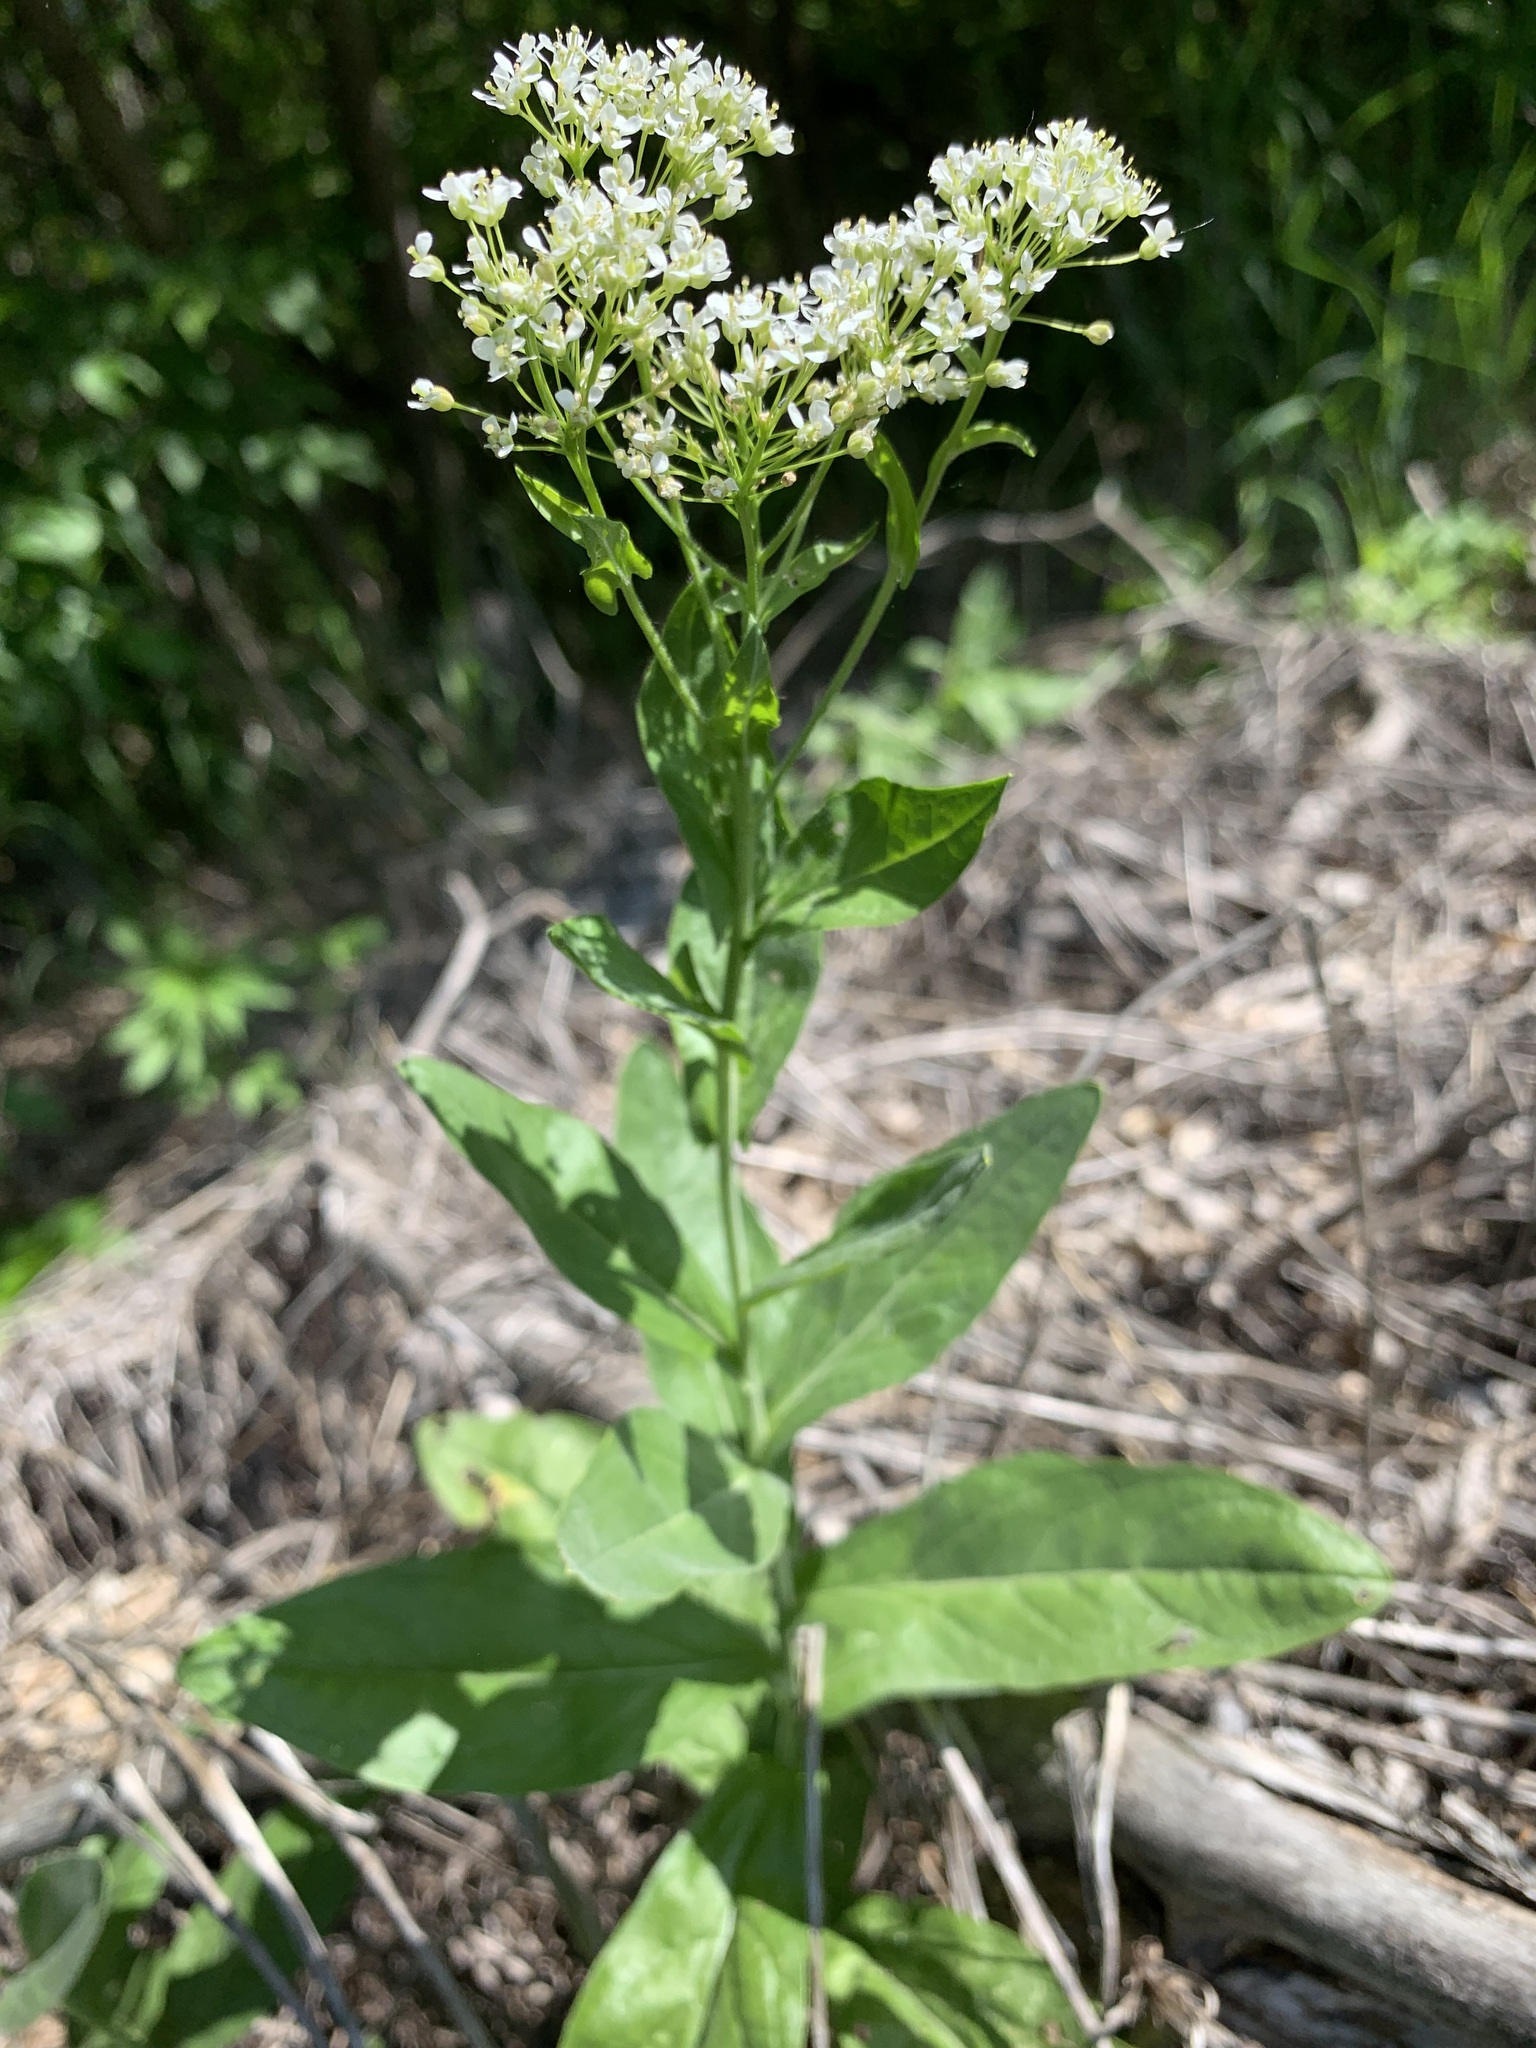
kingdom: Plantae
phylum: Tracheophyta
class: Magnoliopsida
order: Brassicales
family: Brassicaceae
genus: Lepidium
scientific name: Lepidium draba
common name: Hoary cress
